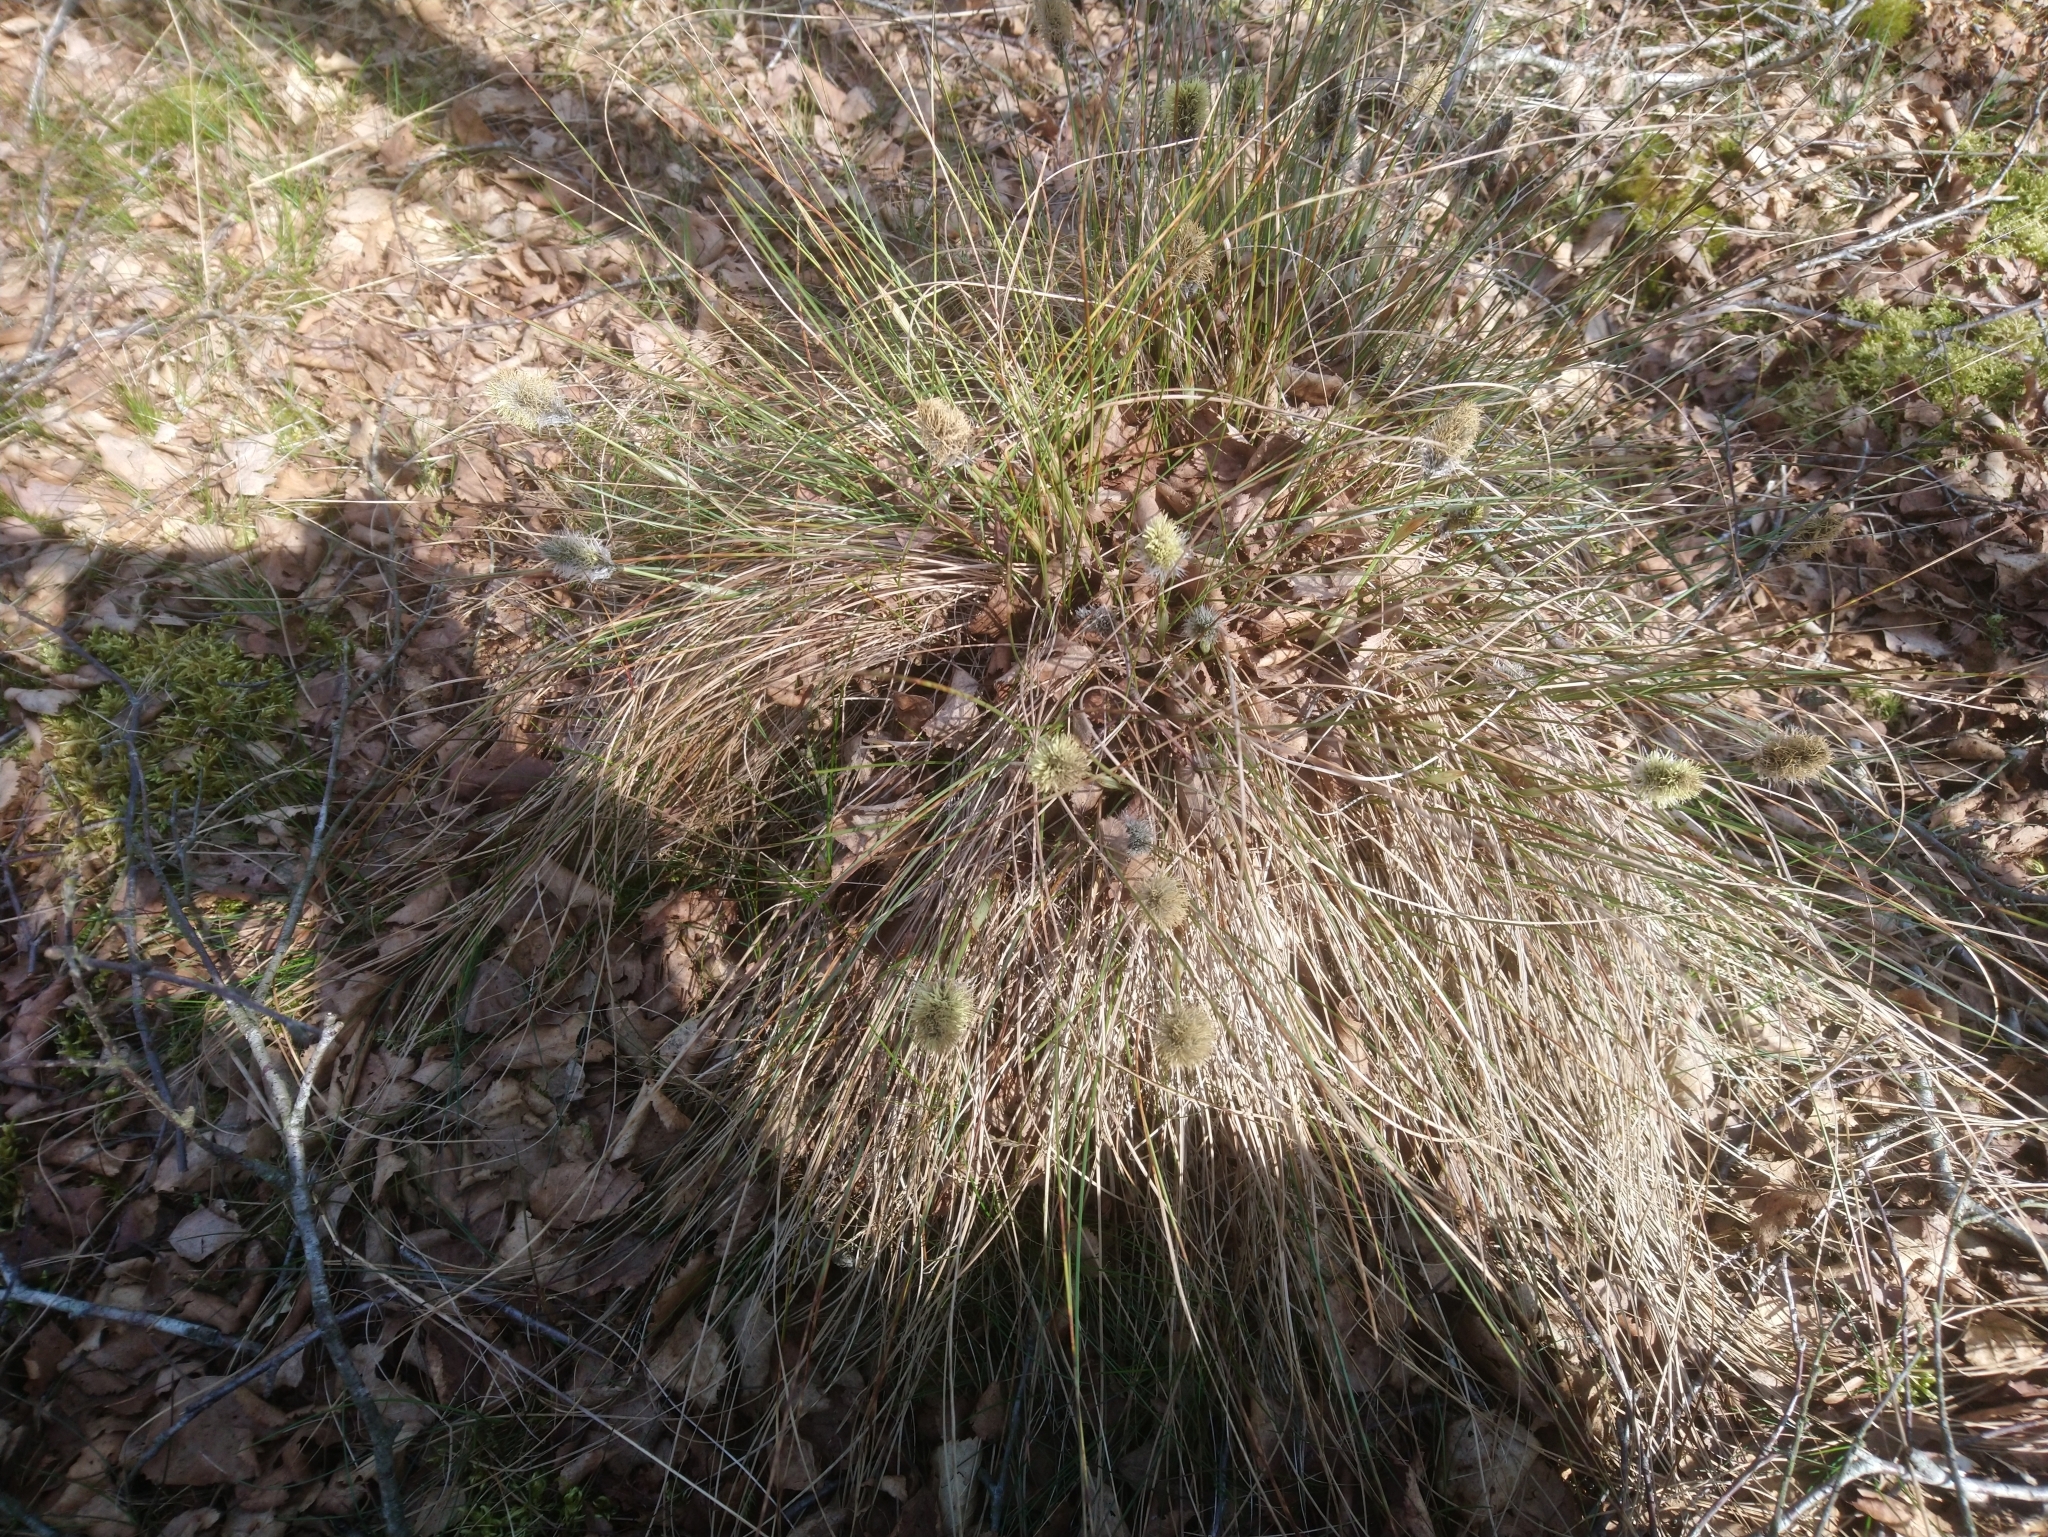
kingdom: Plantae
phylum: Tracheophyta
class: Liliopsida
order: Poales
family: Cyperaceae
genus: Eriophorum
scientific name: Eriophorum vaginatum
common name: Hare's-tail cottongrass
